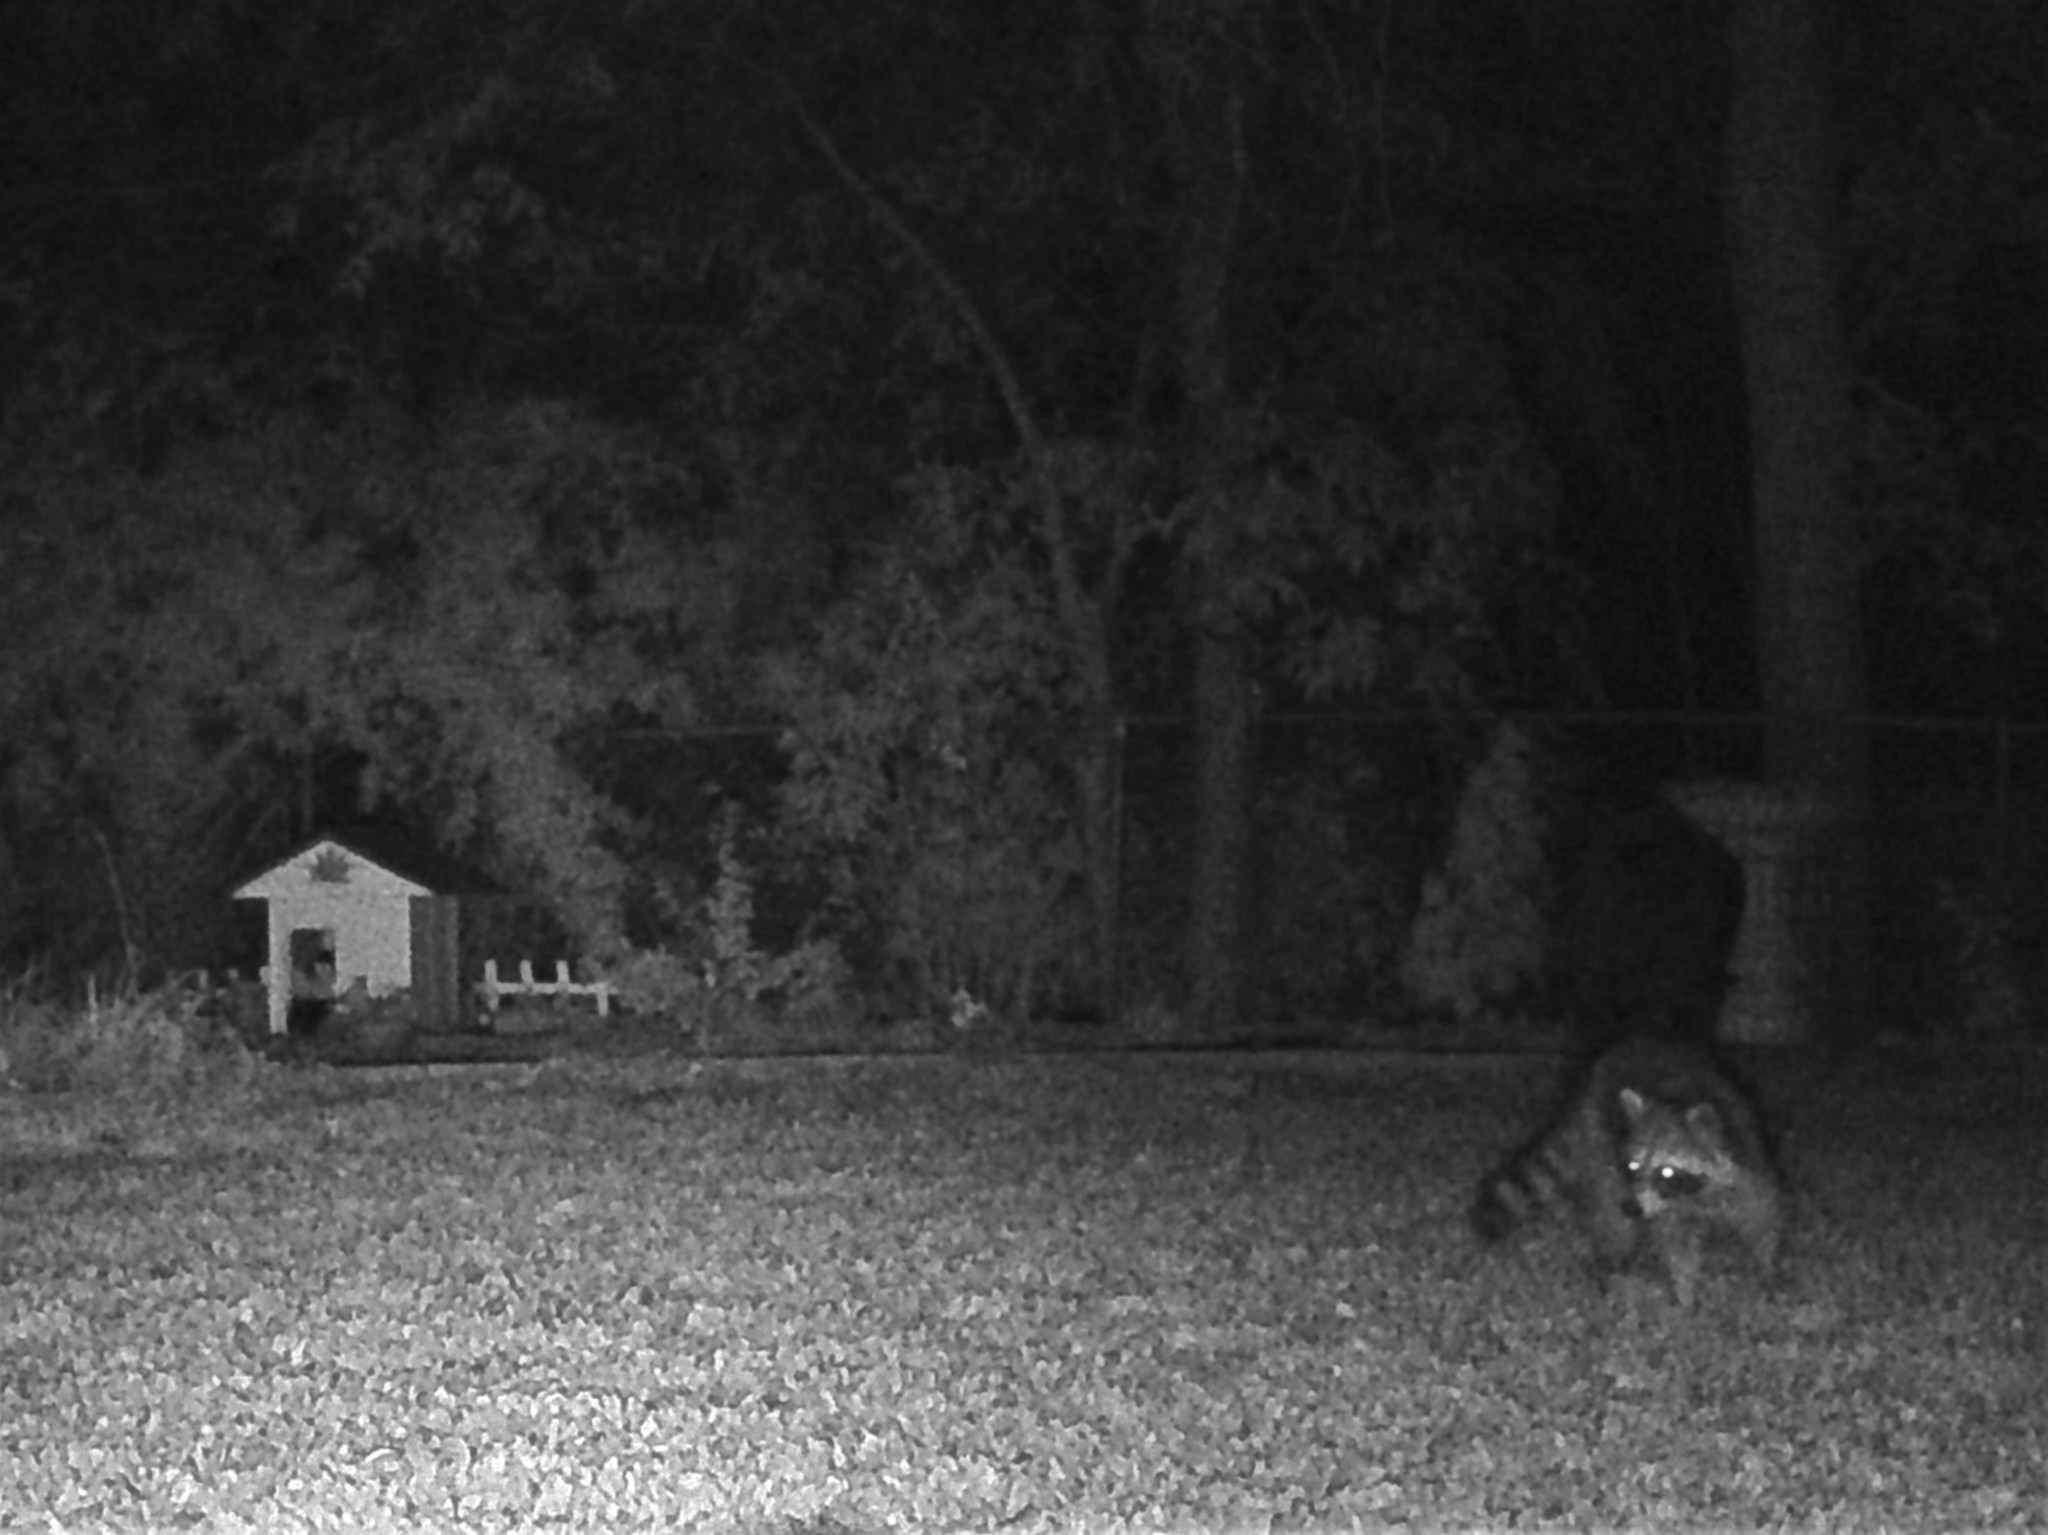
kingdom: Animalia
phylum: Chordata
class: Mammalia
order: Carnivora
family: Procyonidae
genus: Procyon
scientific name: Procyon lotor
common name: Raccoon
